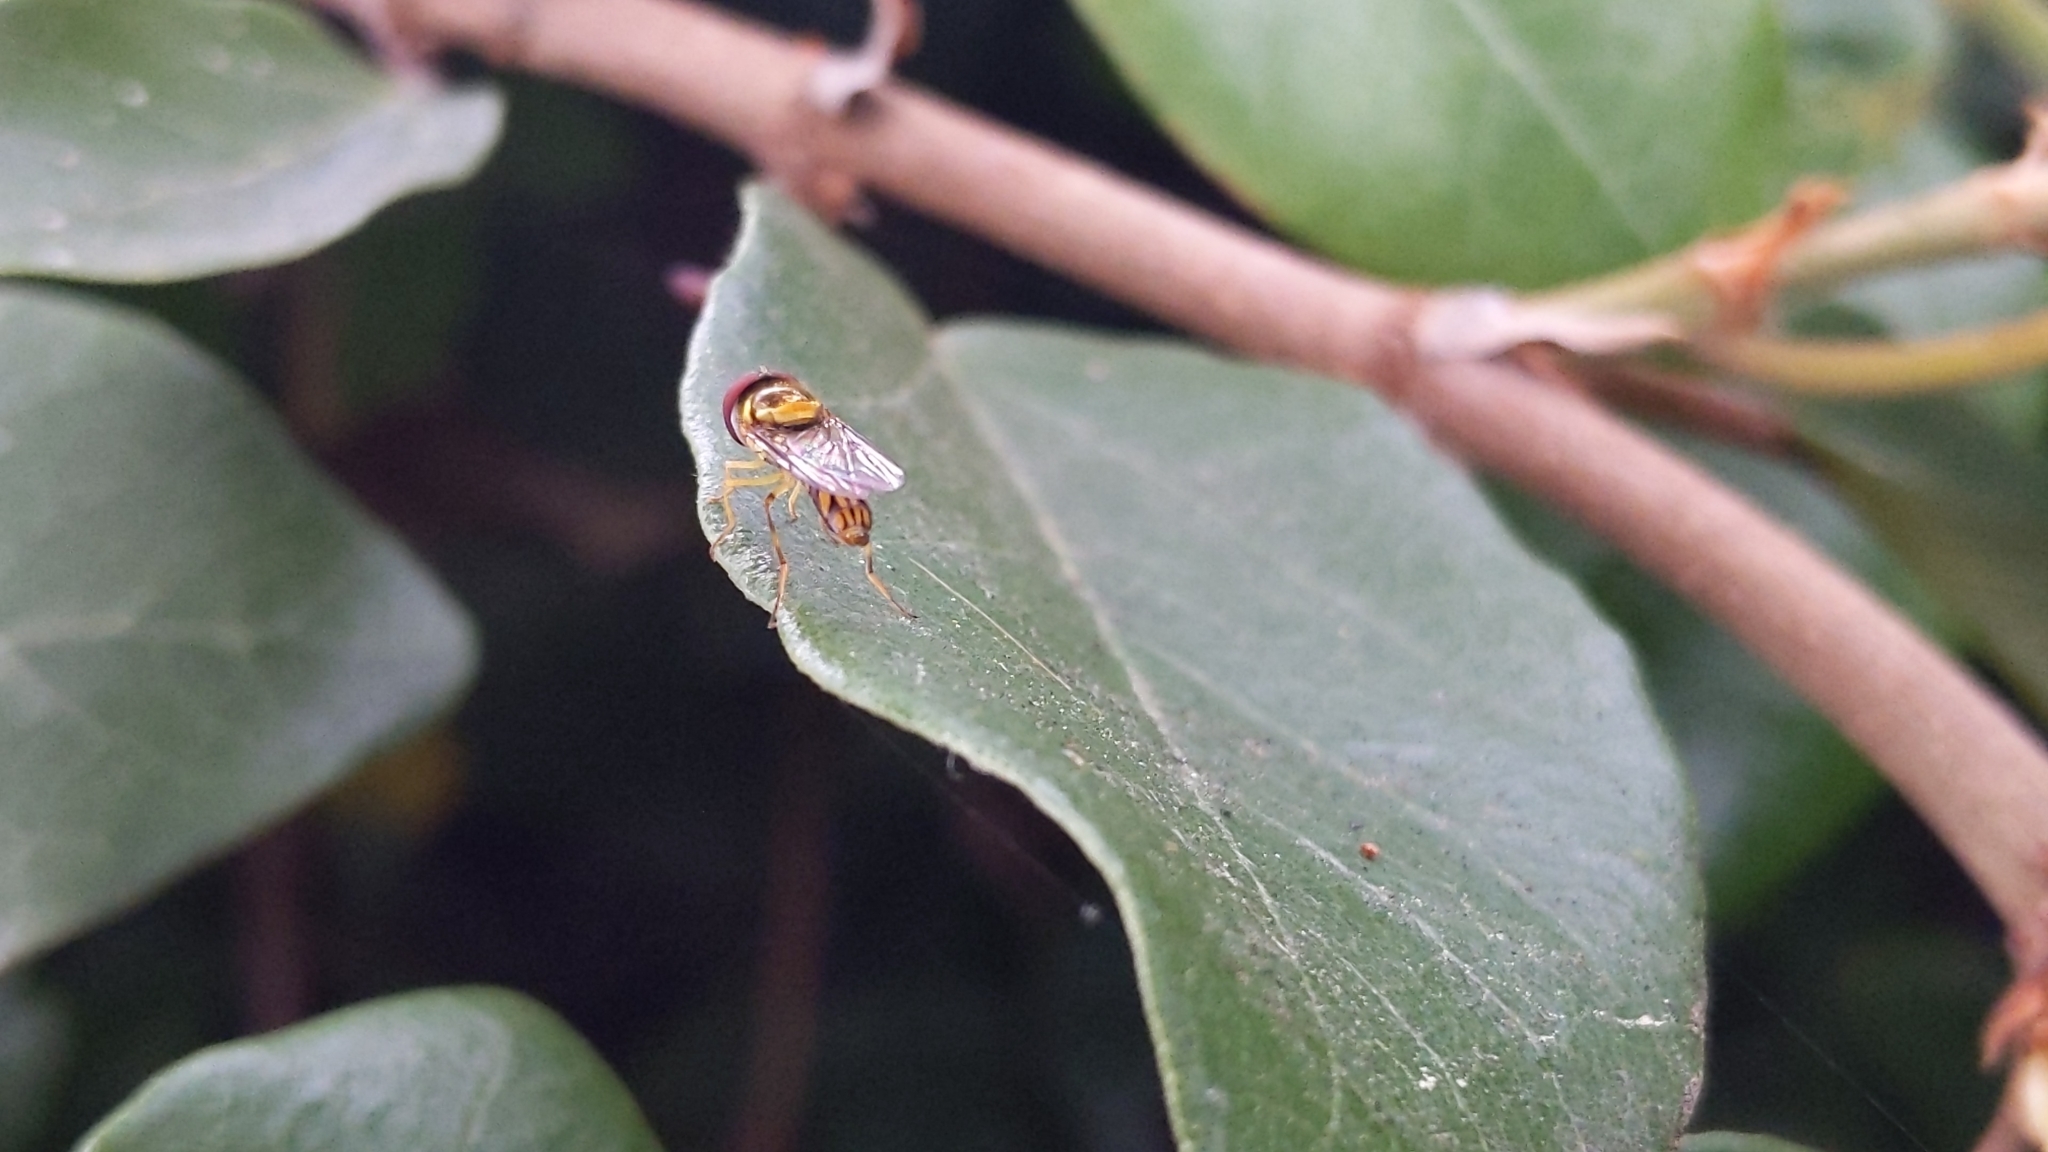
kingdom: Animalia
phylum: Arthropoda
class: Insecta
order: Diptera
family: Syrphidae
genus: Allograpta
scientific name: Allograpta obliqua
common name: Common oblique syrphid
